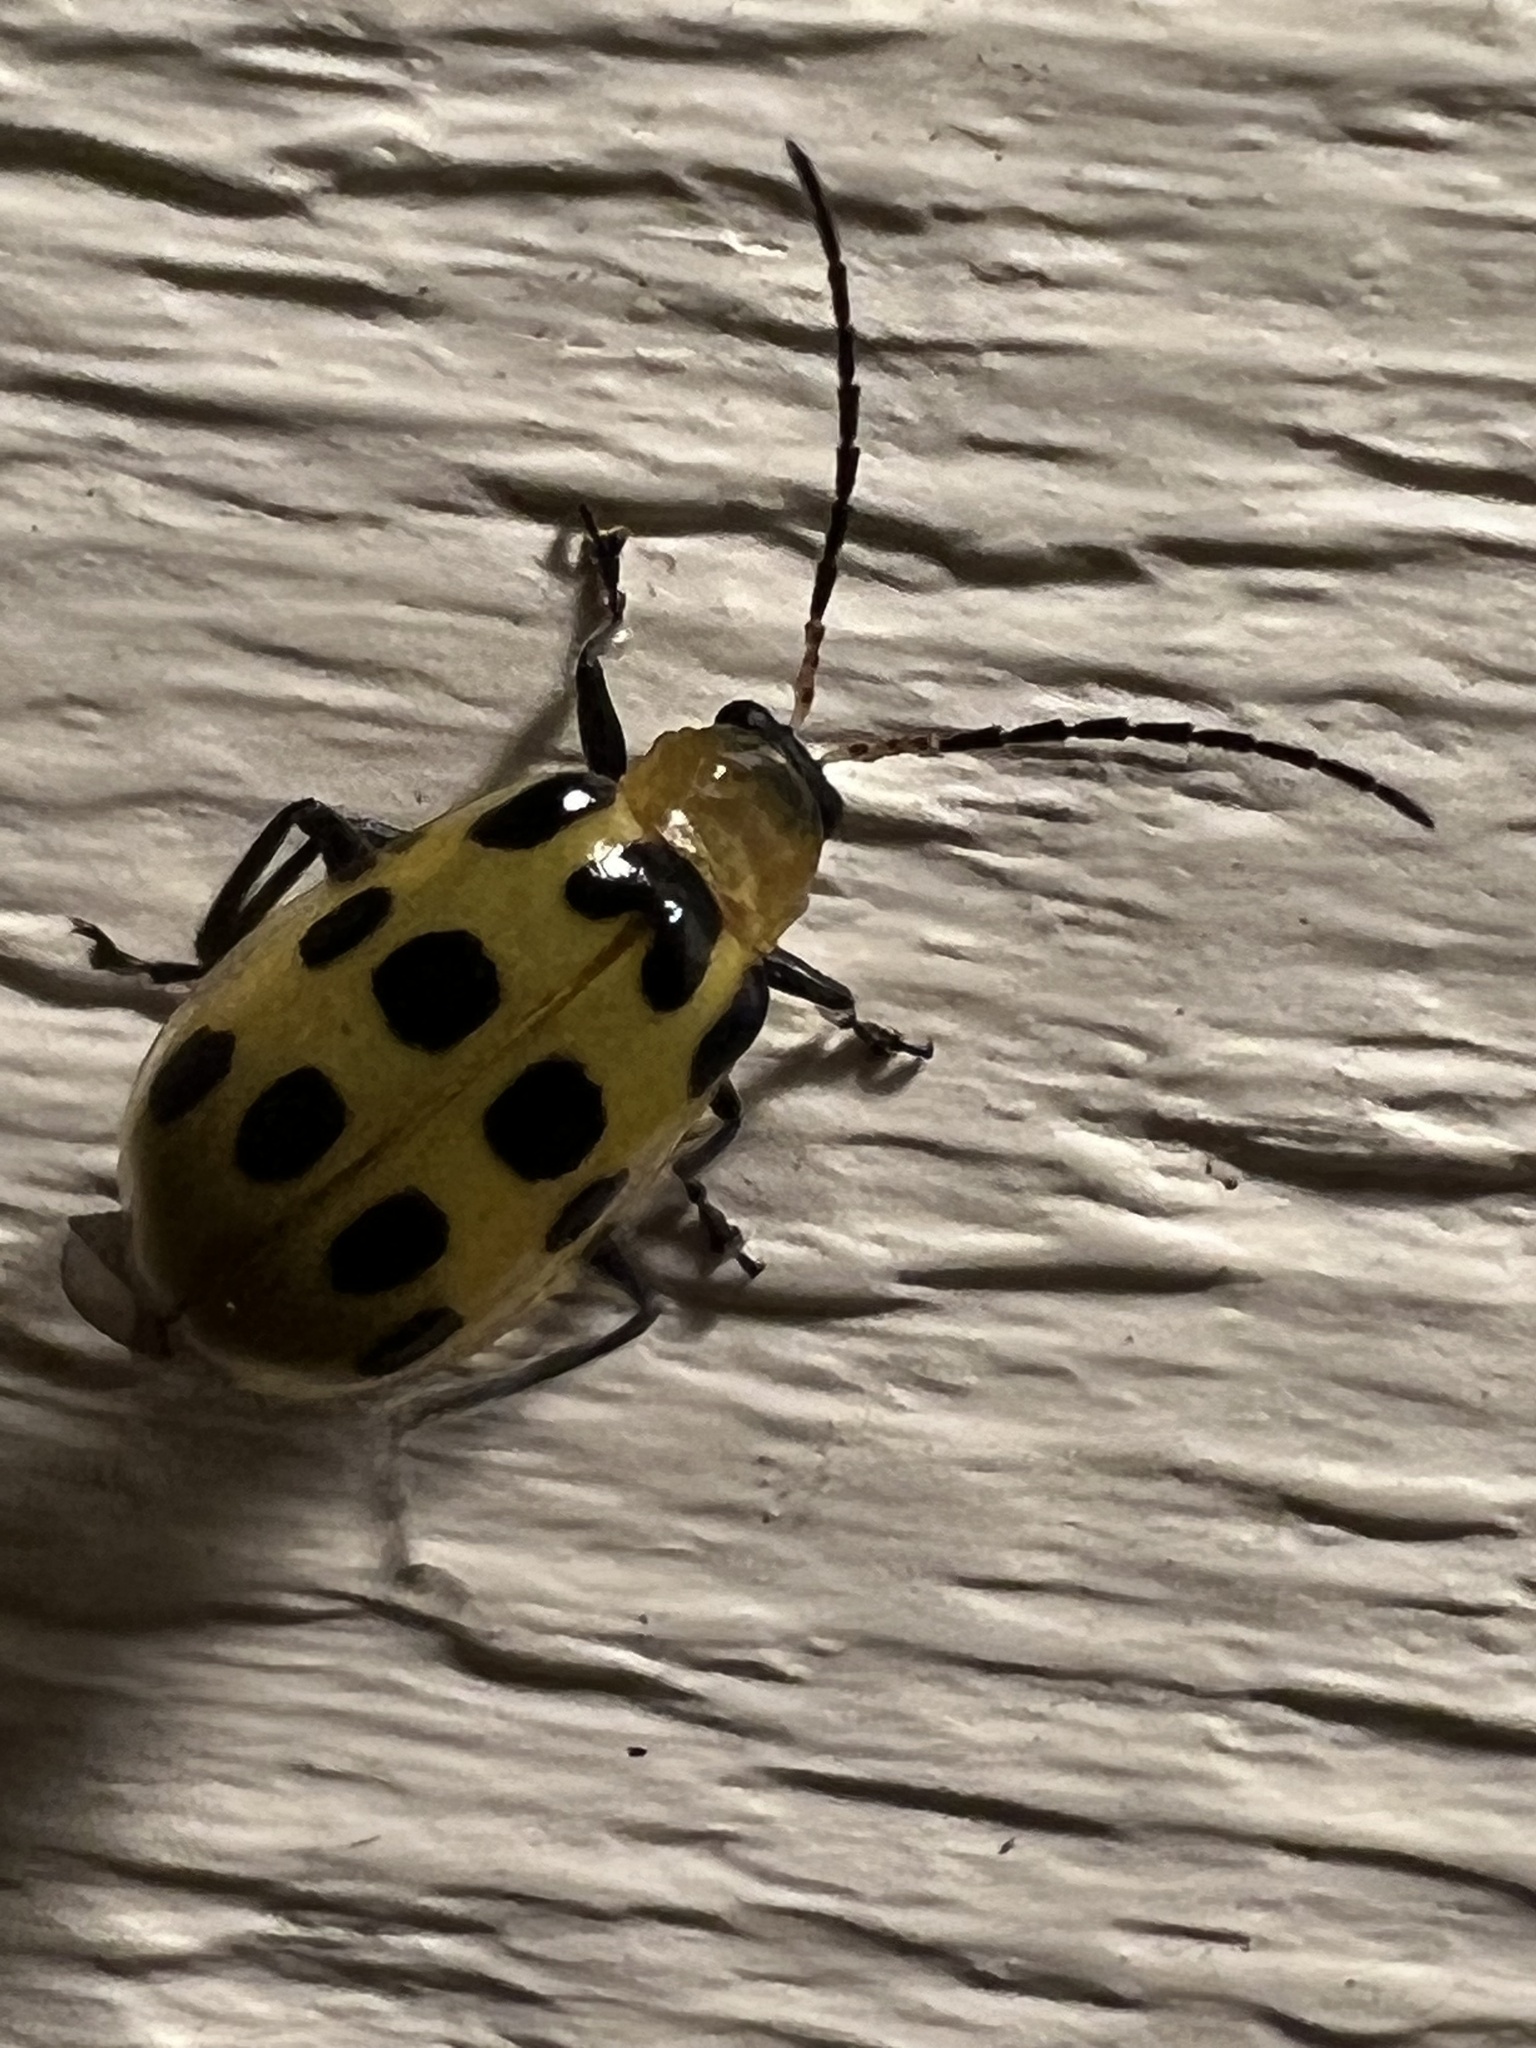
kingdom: Animalia
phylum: Arthropoda
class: Insecta
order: Coleoptera
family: Chrysomelidae
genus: Diabrotica
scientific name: Diabrotica undecimpunctata
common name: Spotted cucumber beetle
